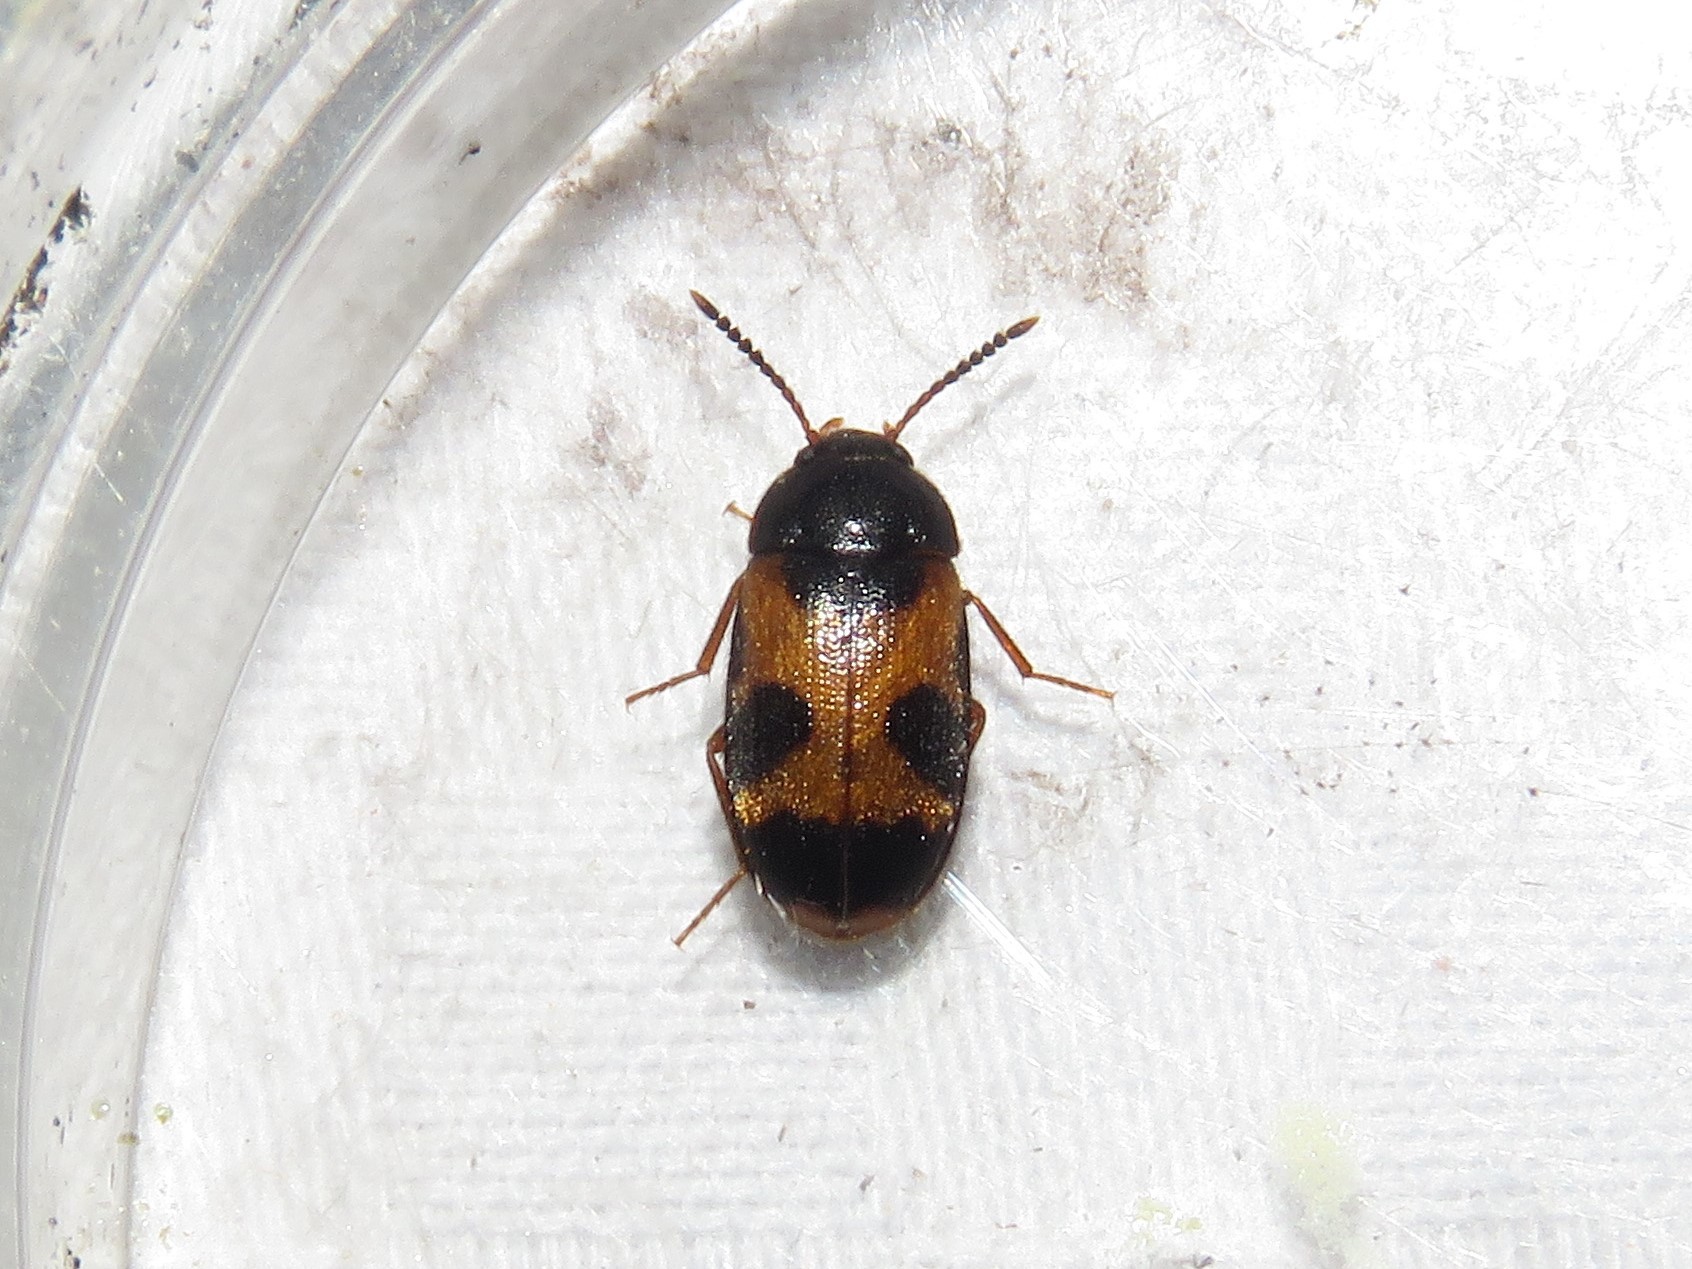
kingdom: Animalia
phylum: Arthropoda
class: Insecta
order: Coleoptera
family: Mycetophagidae
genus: Mycetophagus
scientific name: Mycetophagus punctatus
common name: Hairy fungus beetle
